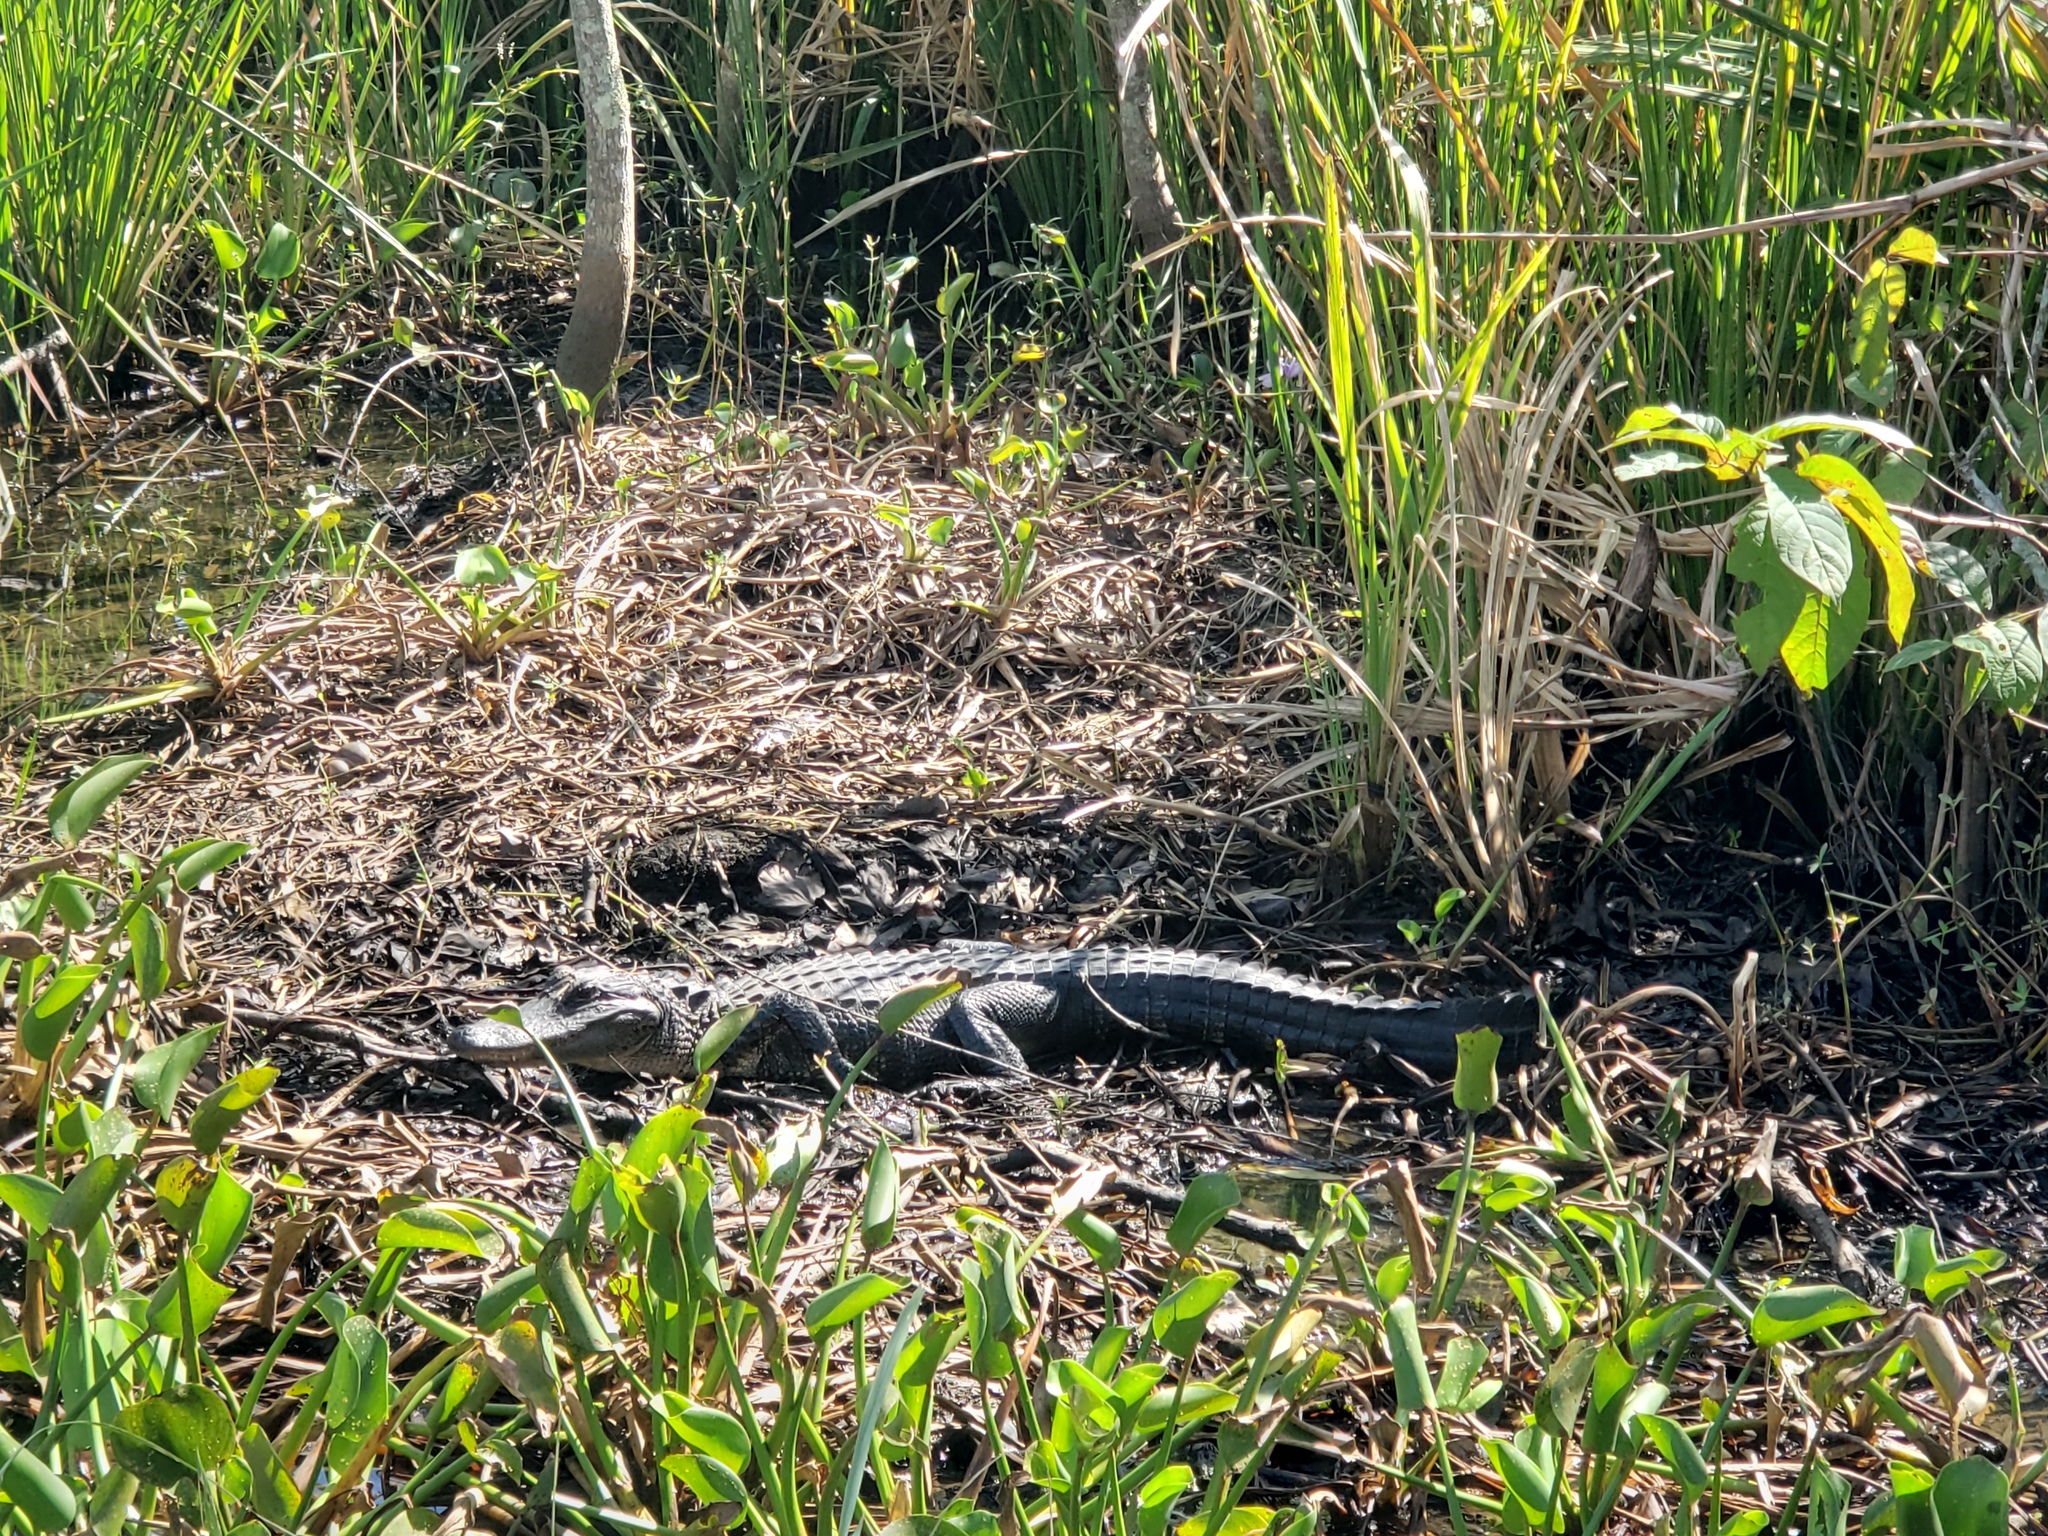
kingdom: Animalia
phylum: Chordata
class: Crocodylia
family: Alligatoridae
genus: Alligator
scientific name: Alligator mississippiensis
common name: American alligator
